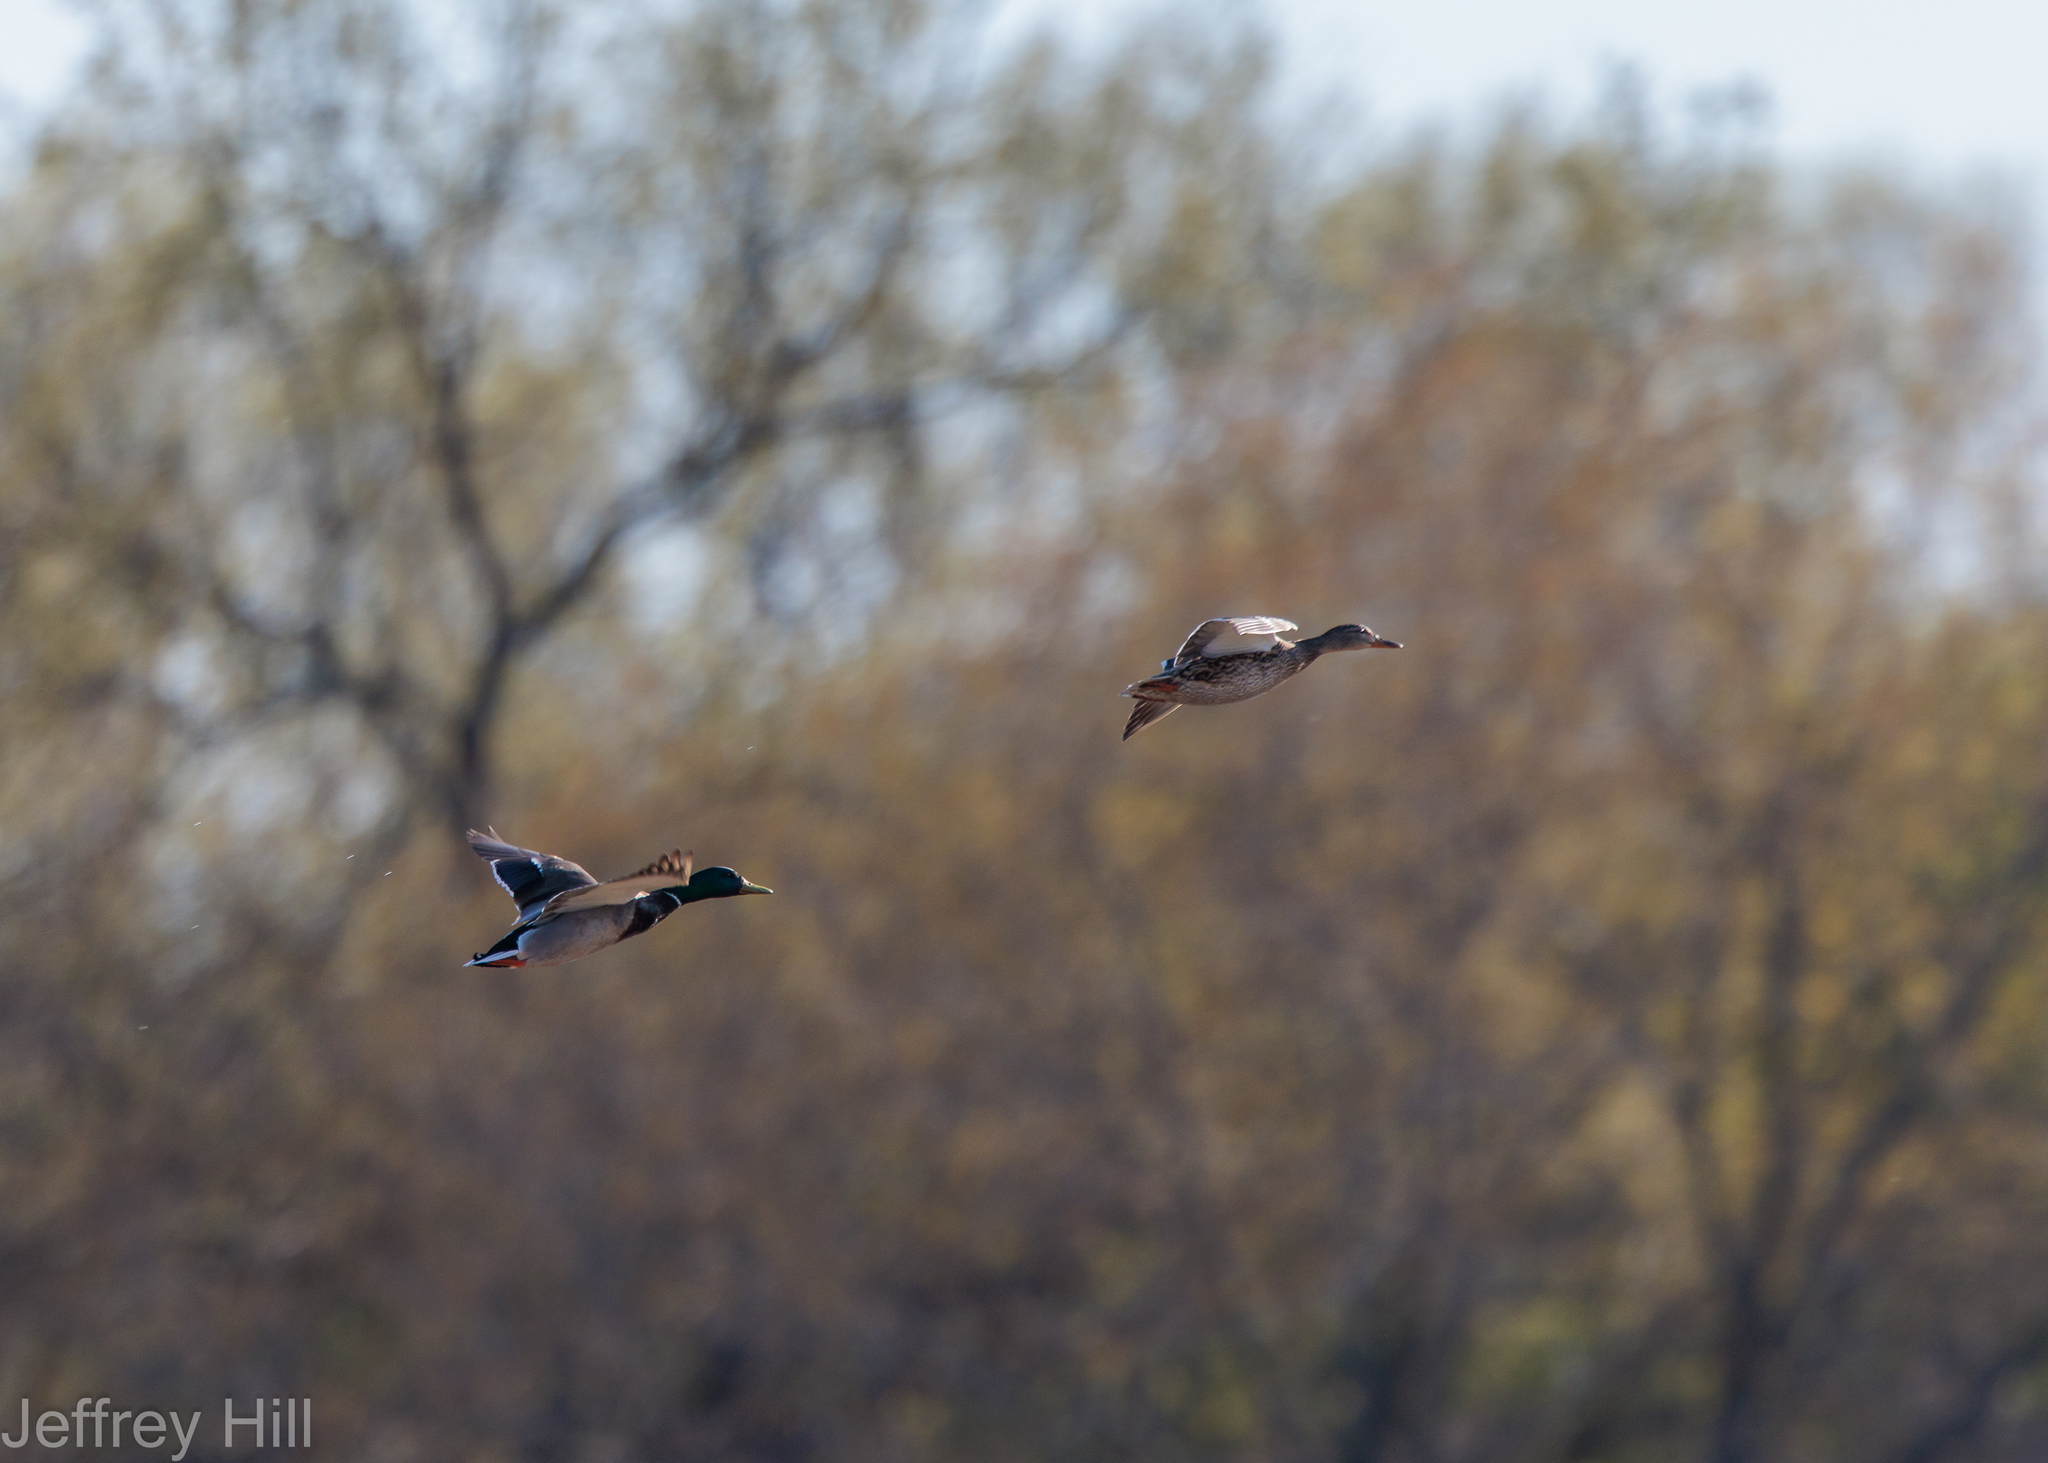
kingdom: Animalia
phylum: Chordata
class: Aves
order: Anseriformes
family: Anatidae
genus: Anas
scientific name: Anas platyrhynchos
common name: Mallard
